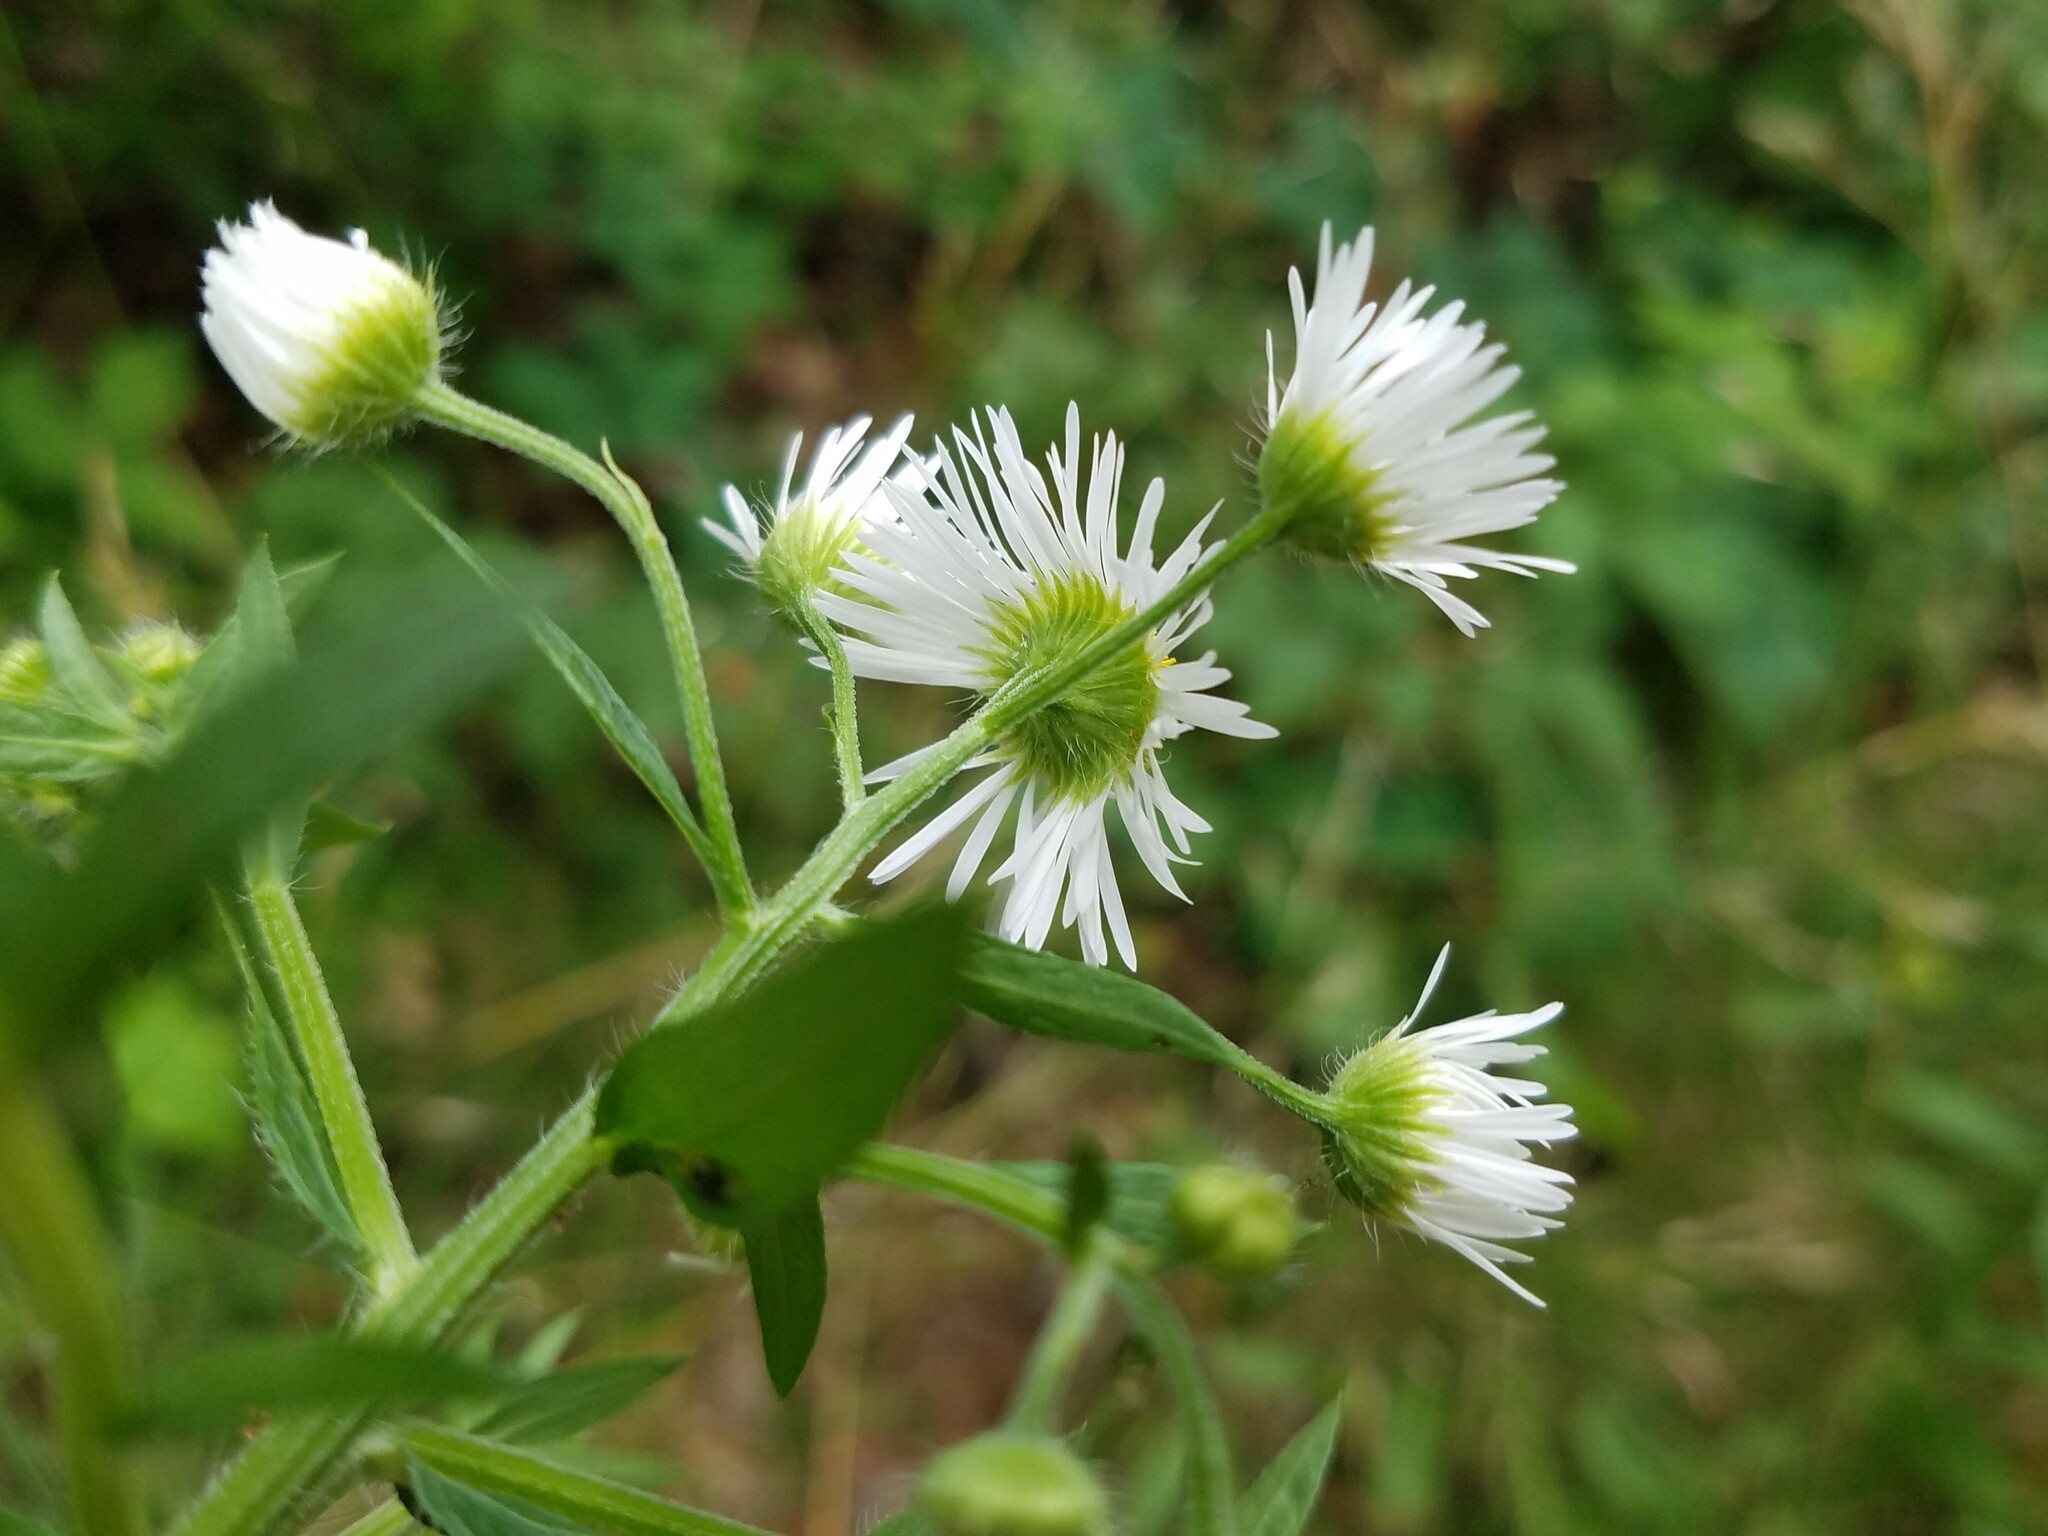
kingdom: Plantae
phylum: Tracheophyta
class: Magnoliopsida
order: Asterales
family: Asteraceae
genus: Erigeron
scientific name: Erigeron annuus
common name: Tall fleabane
